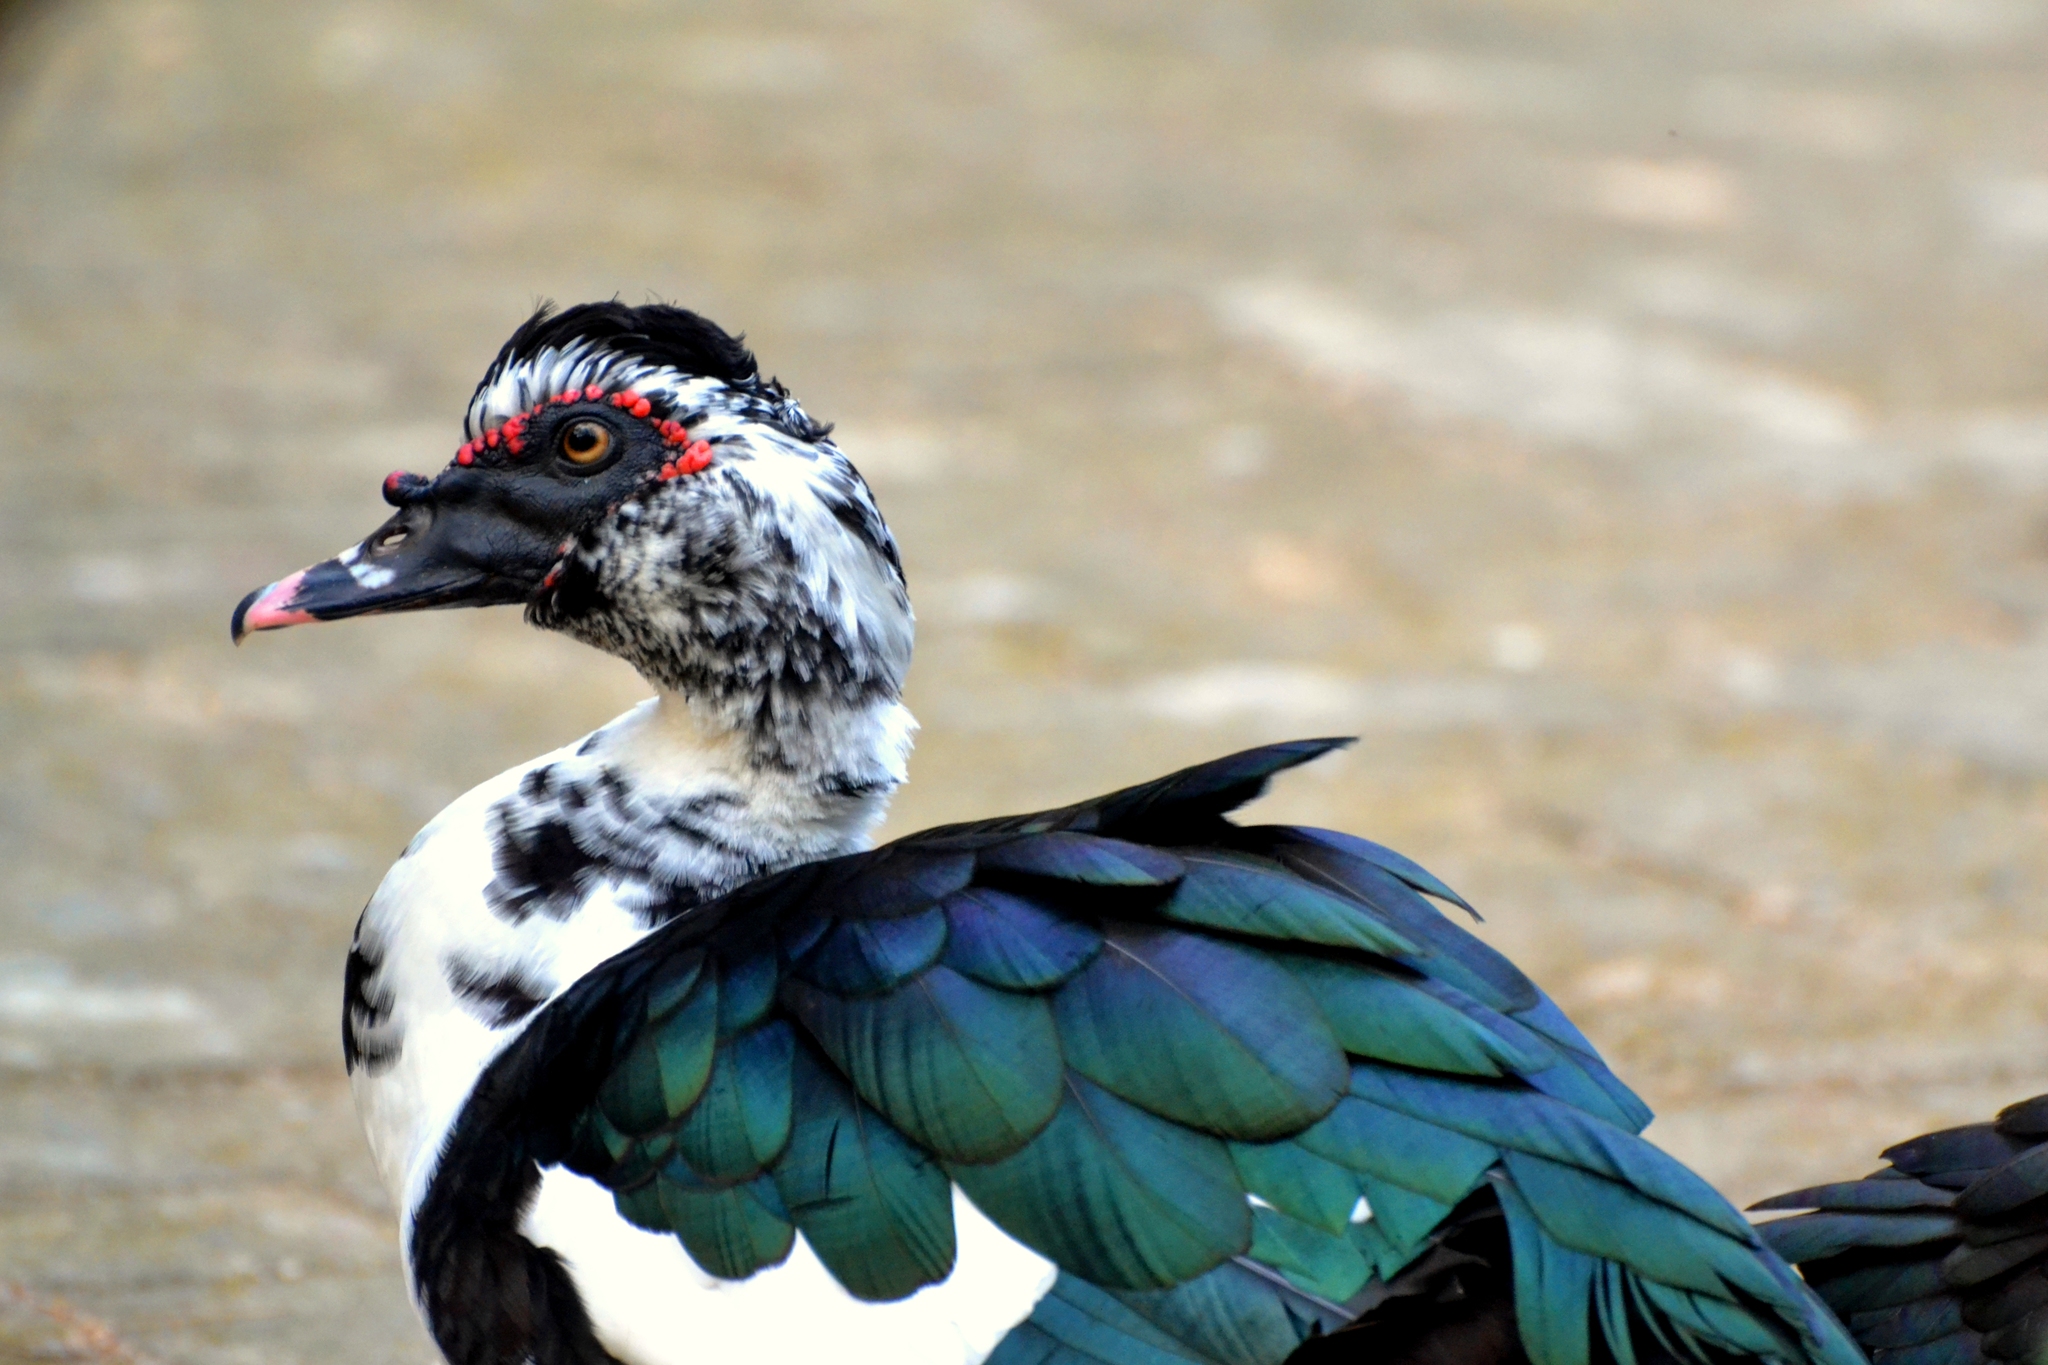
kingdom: Animalia
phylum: Chordata
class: Aves
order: Anseriformes
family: Anatidae
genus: Cairina
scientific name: Cairina moschata
